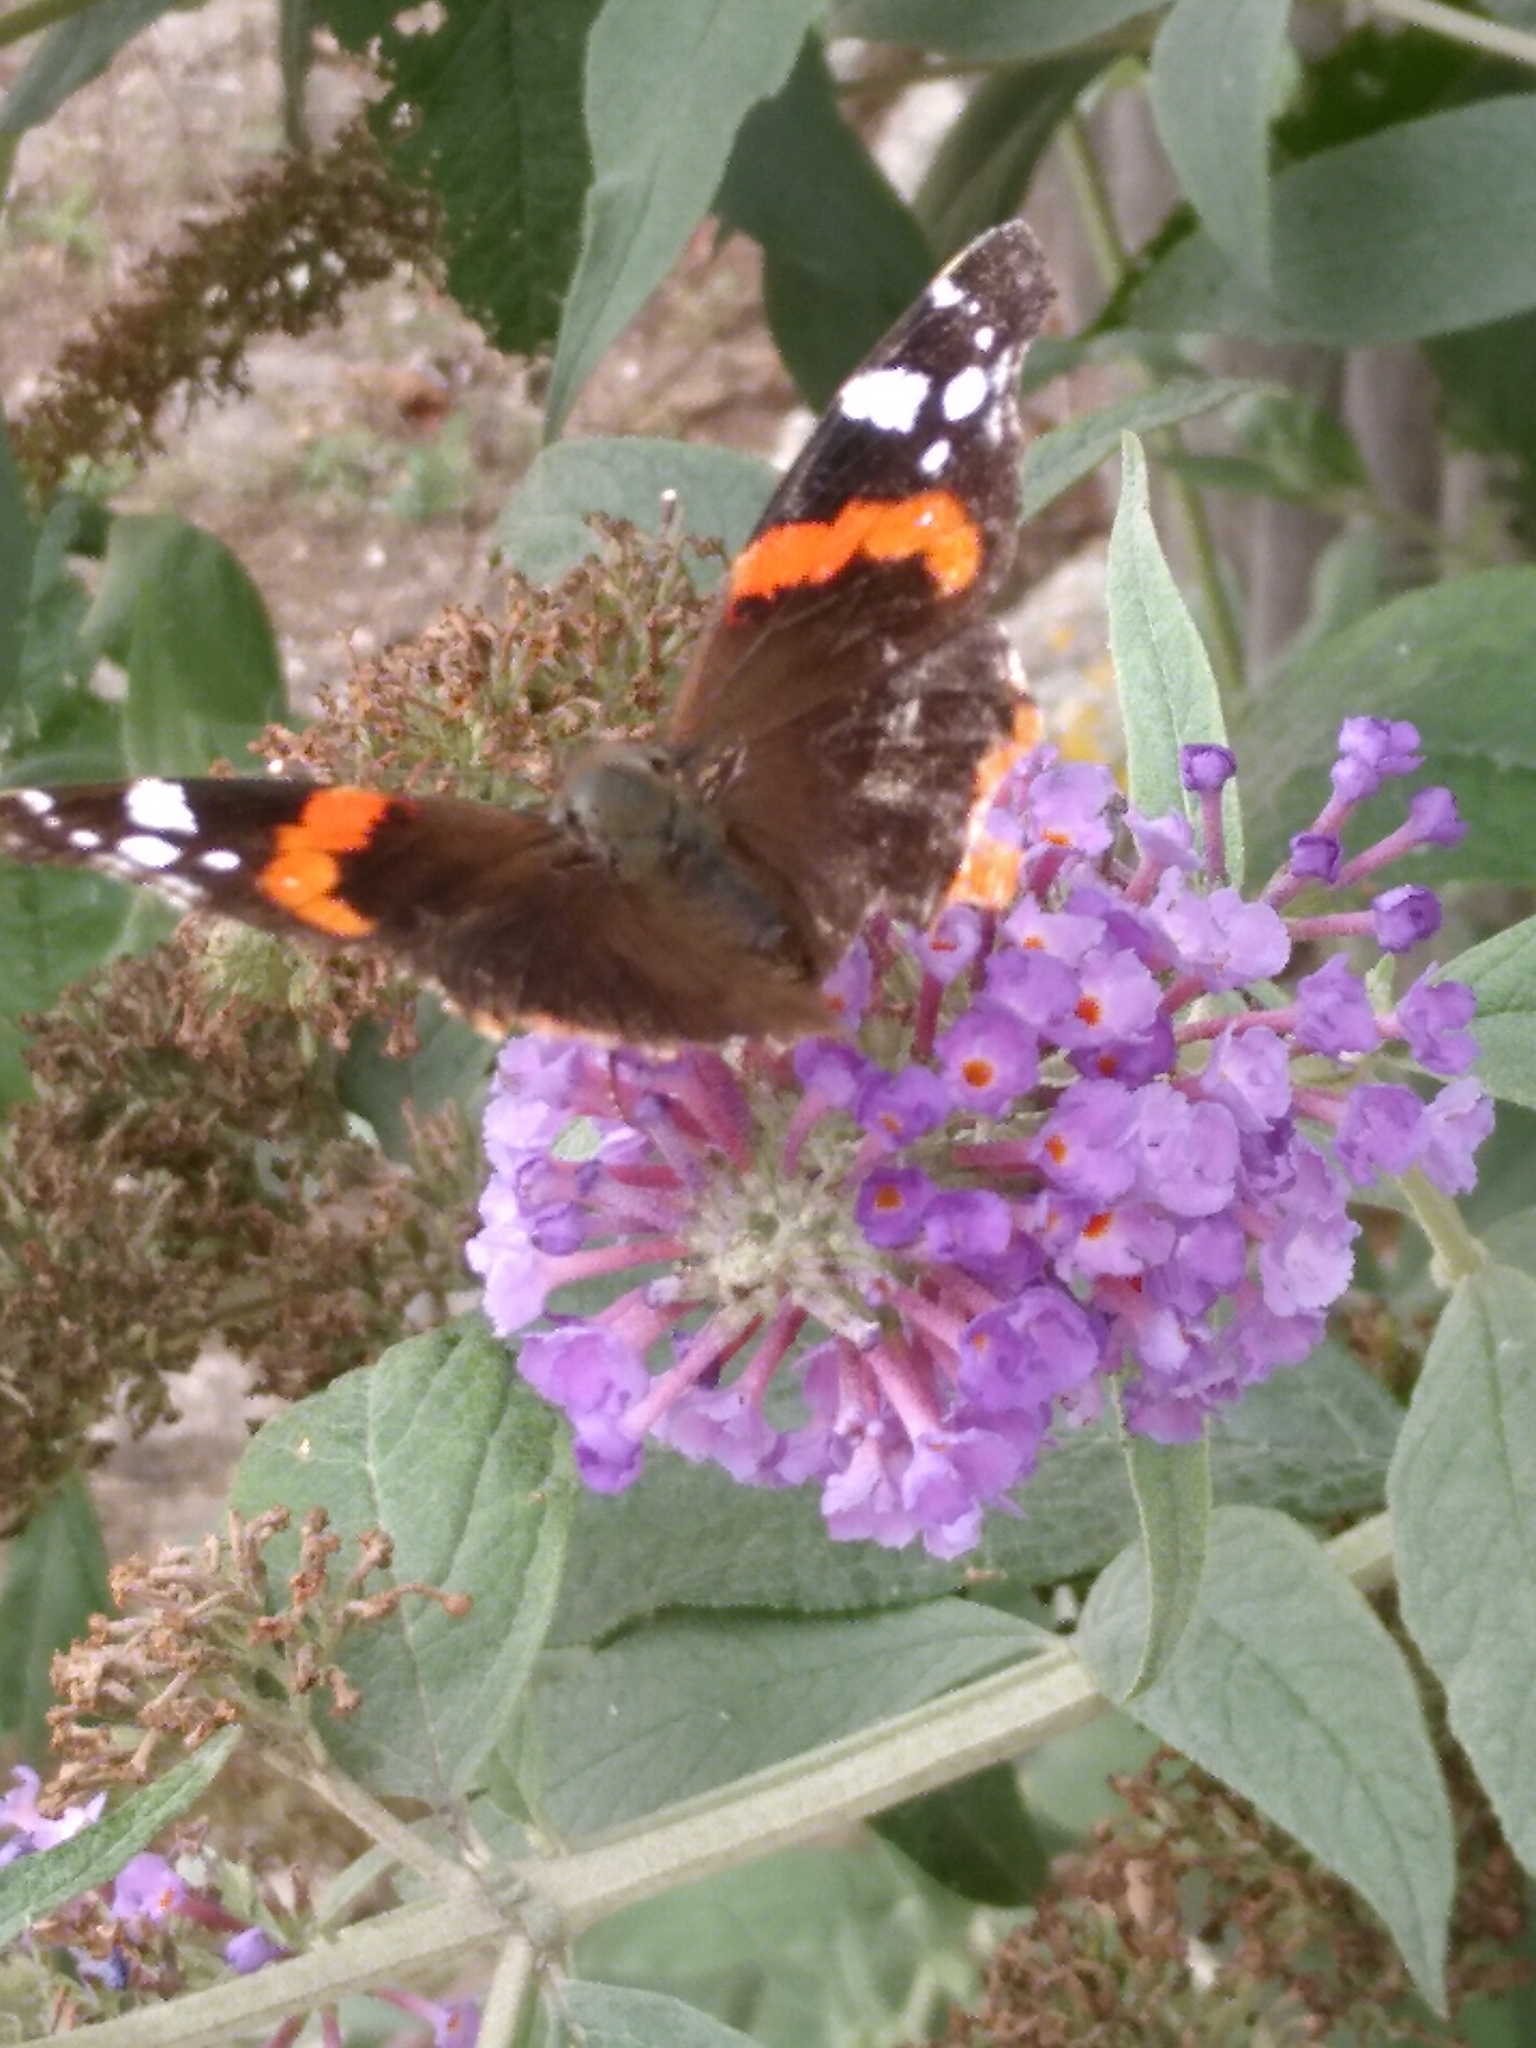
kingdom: Animalia
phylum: Arthropoda
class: Insecta
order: Lepidoptera
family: Nymphalidae
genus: Vanessa
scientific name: Vanessa atalanta
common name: Red admiral
